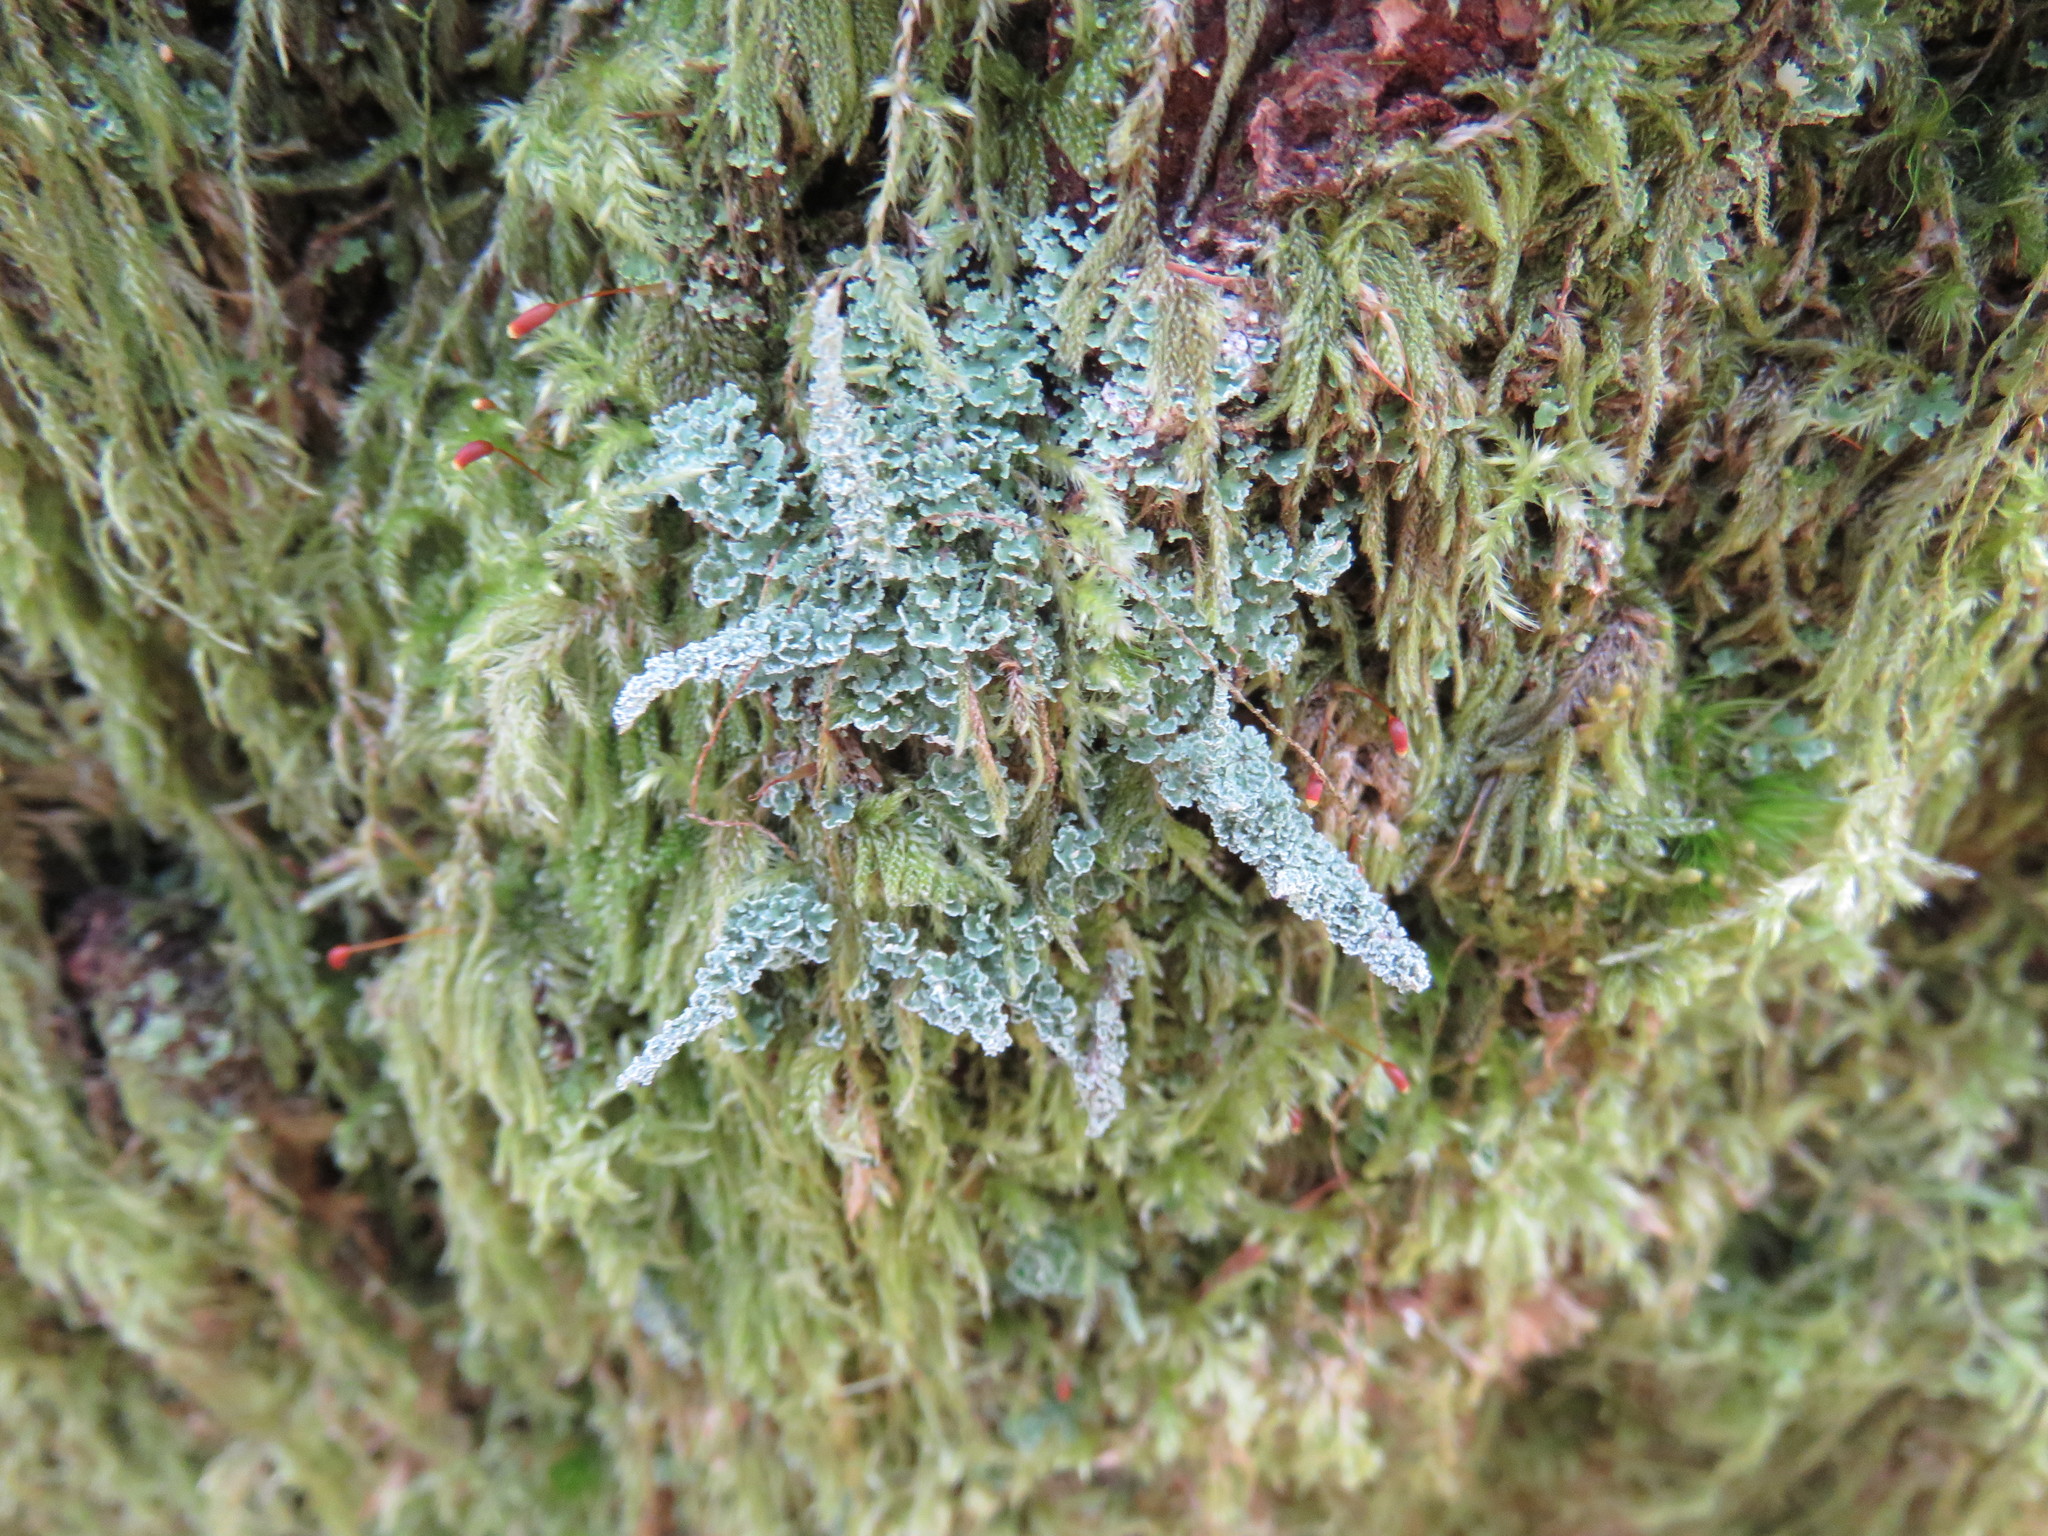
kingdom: Fungi
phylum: Ascomycota
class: Lecanoromycetes
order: Lecanorales
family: Cladoniaceae
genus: Cladonia
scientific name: Cladonia squamosa
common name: Dragon horn
